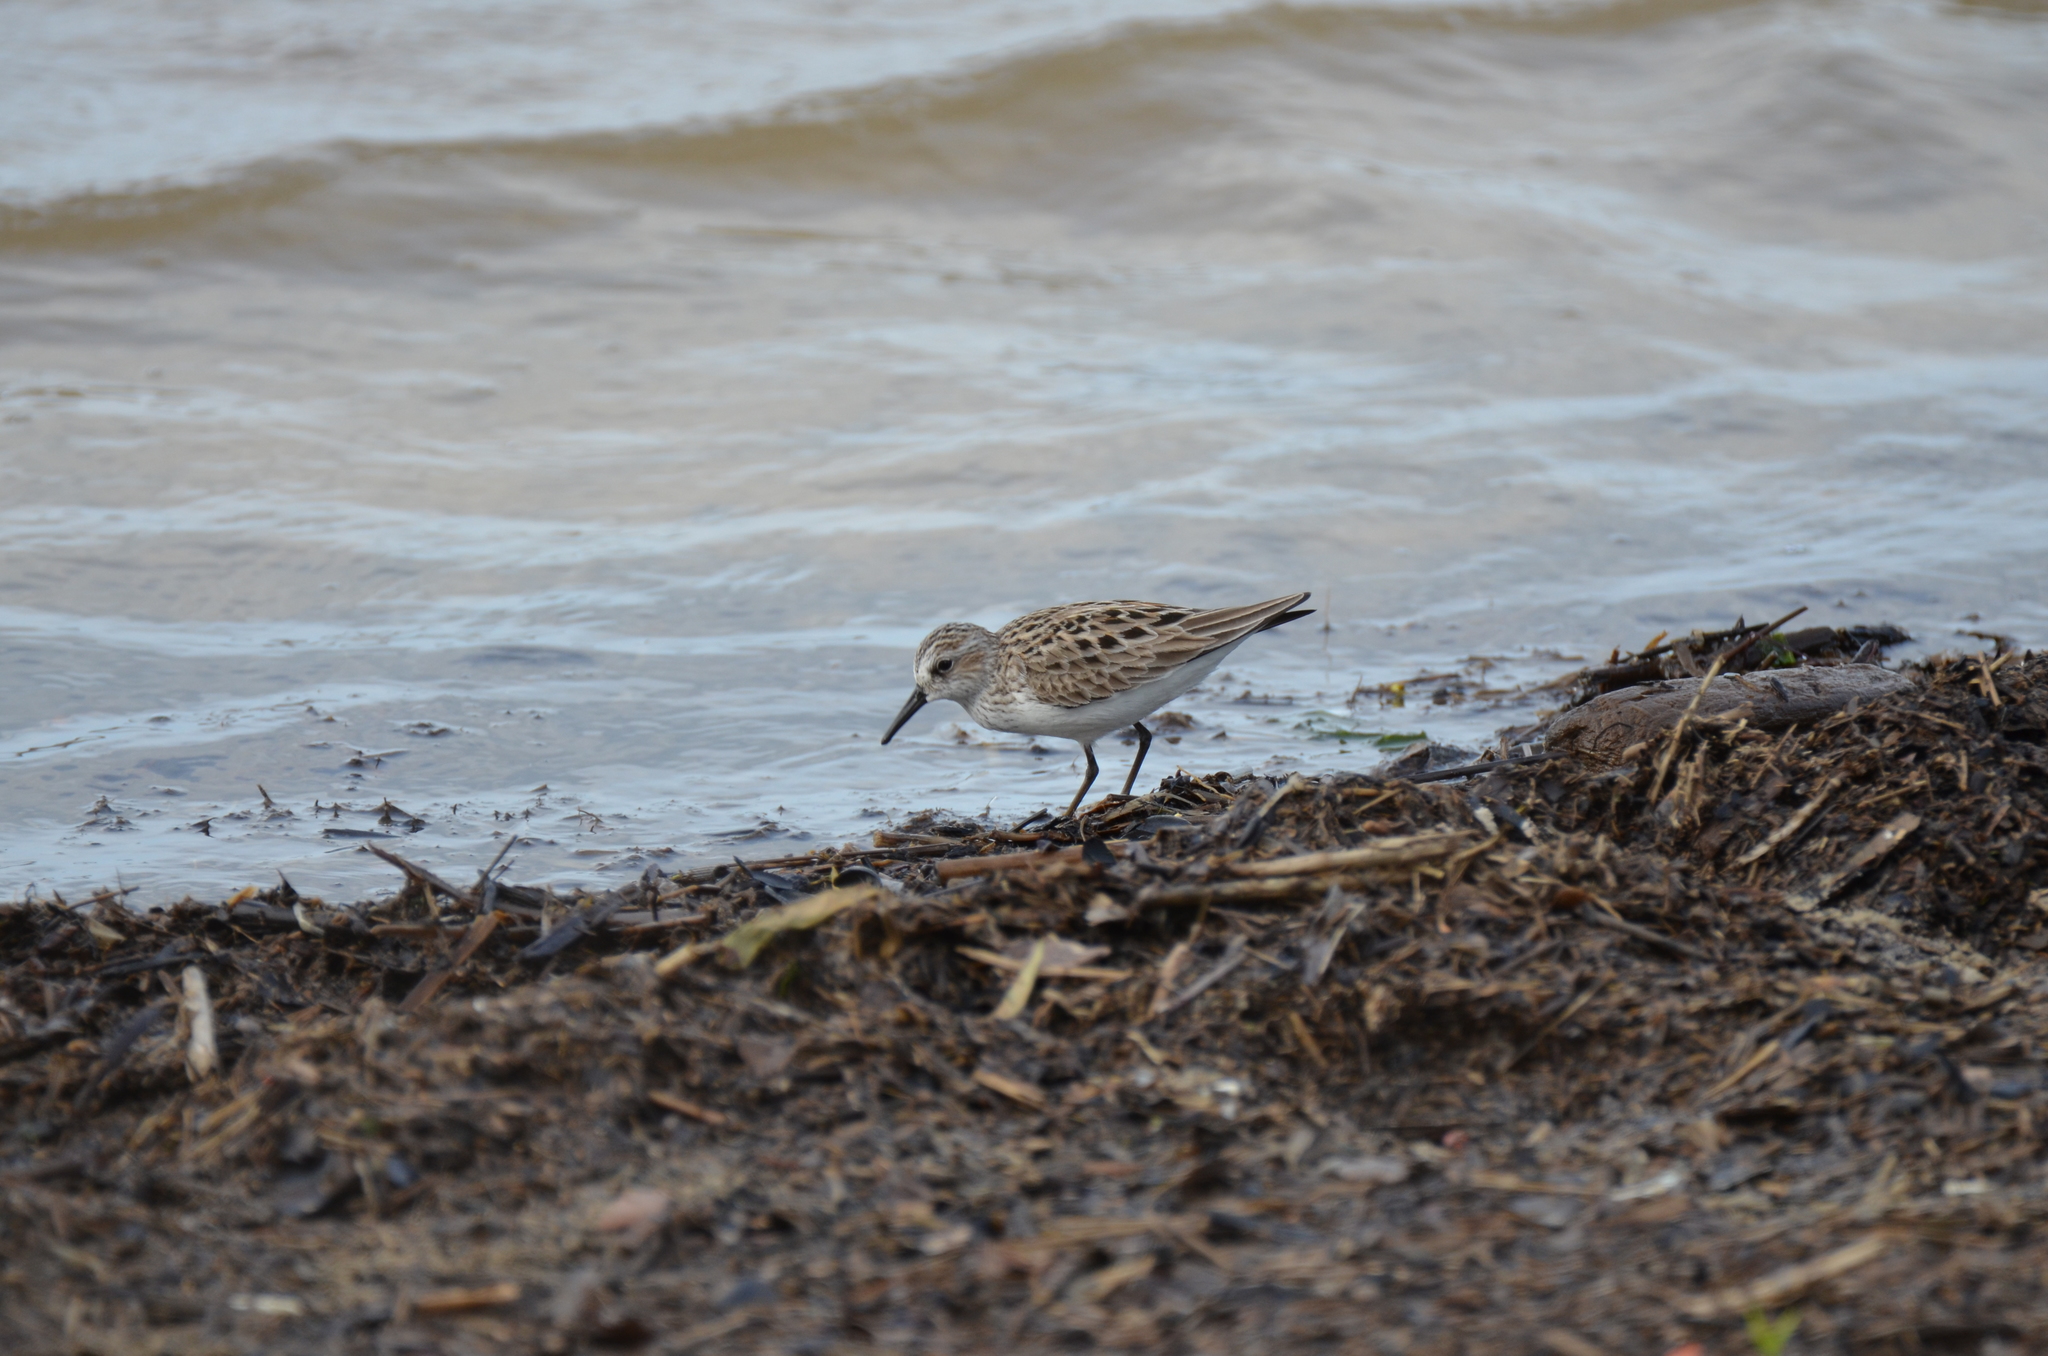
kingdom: Animalia
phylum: Chordata
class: Aves
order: Charadriiformes
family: Scolopacidae
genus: Calidris
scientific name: Calidris pusilla
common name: Semipalmated sandpiper
